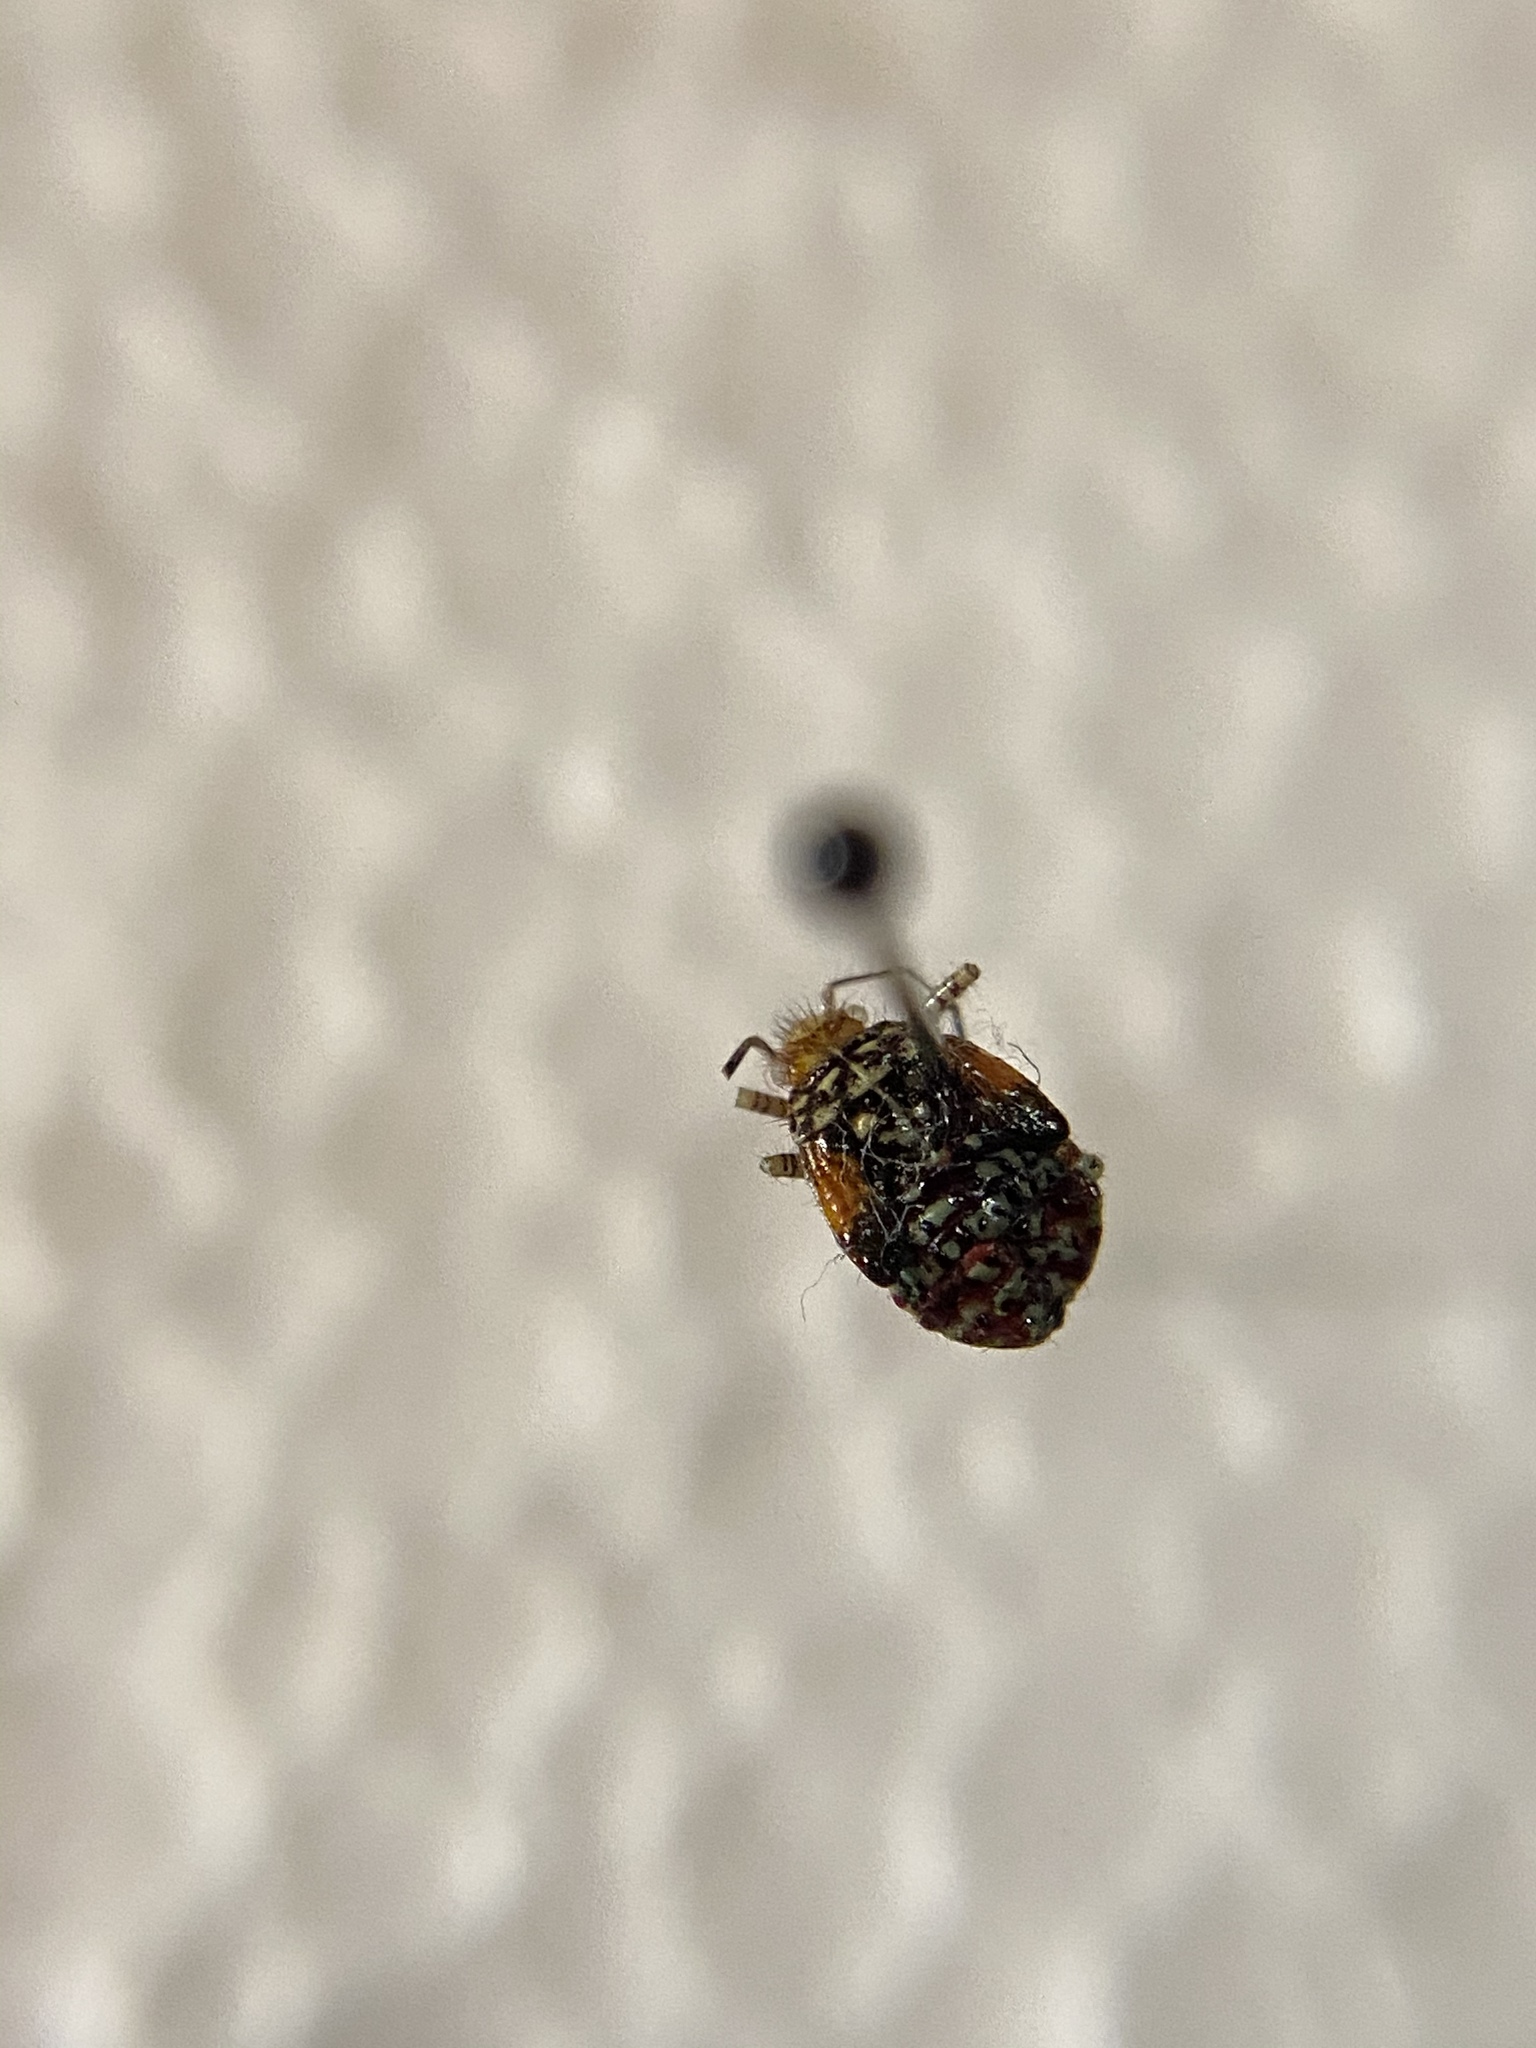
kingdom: Animalia
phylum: Arthropoda
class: Insecta
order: Hemiptera
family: Rhopalidae
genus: Niesthrea
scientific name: Niesthrea louisianica
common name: Scentless plant bug
